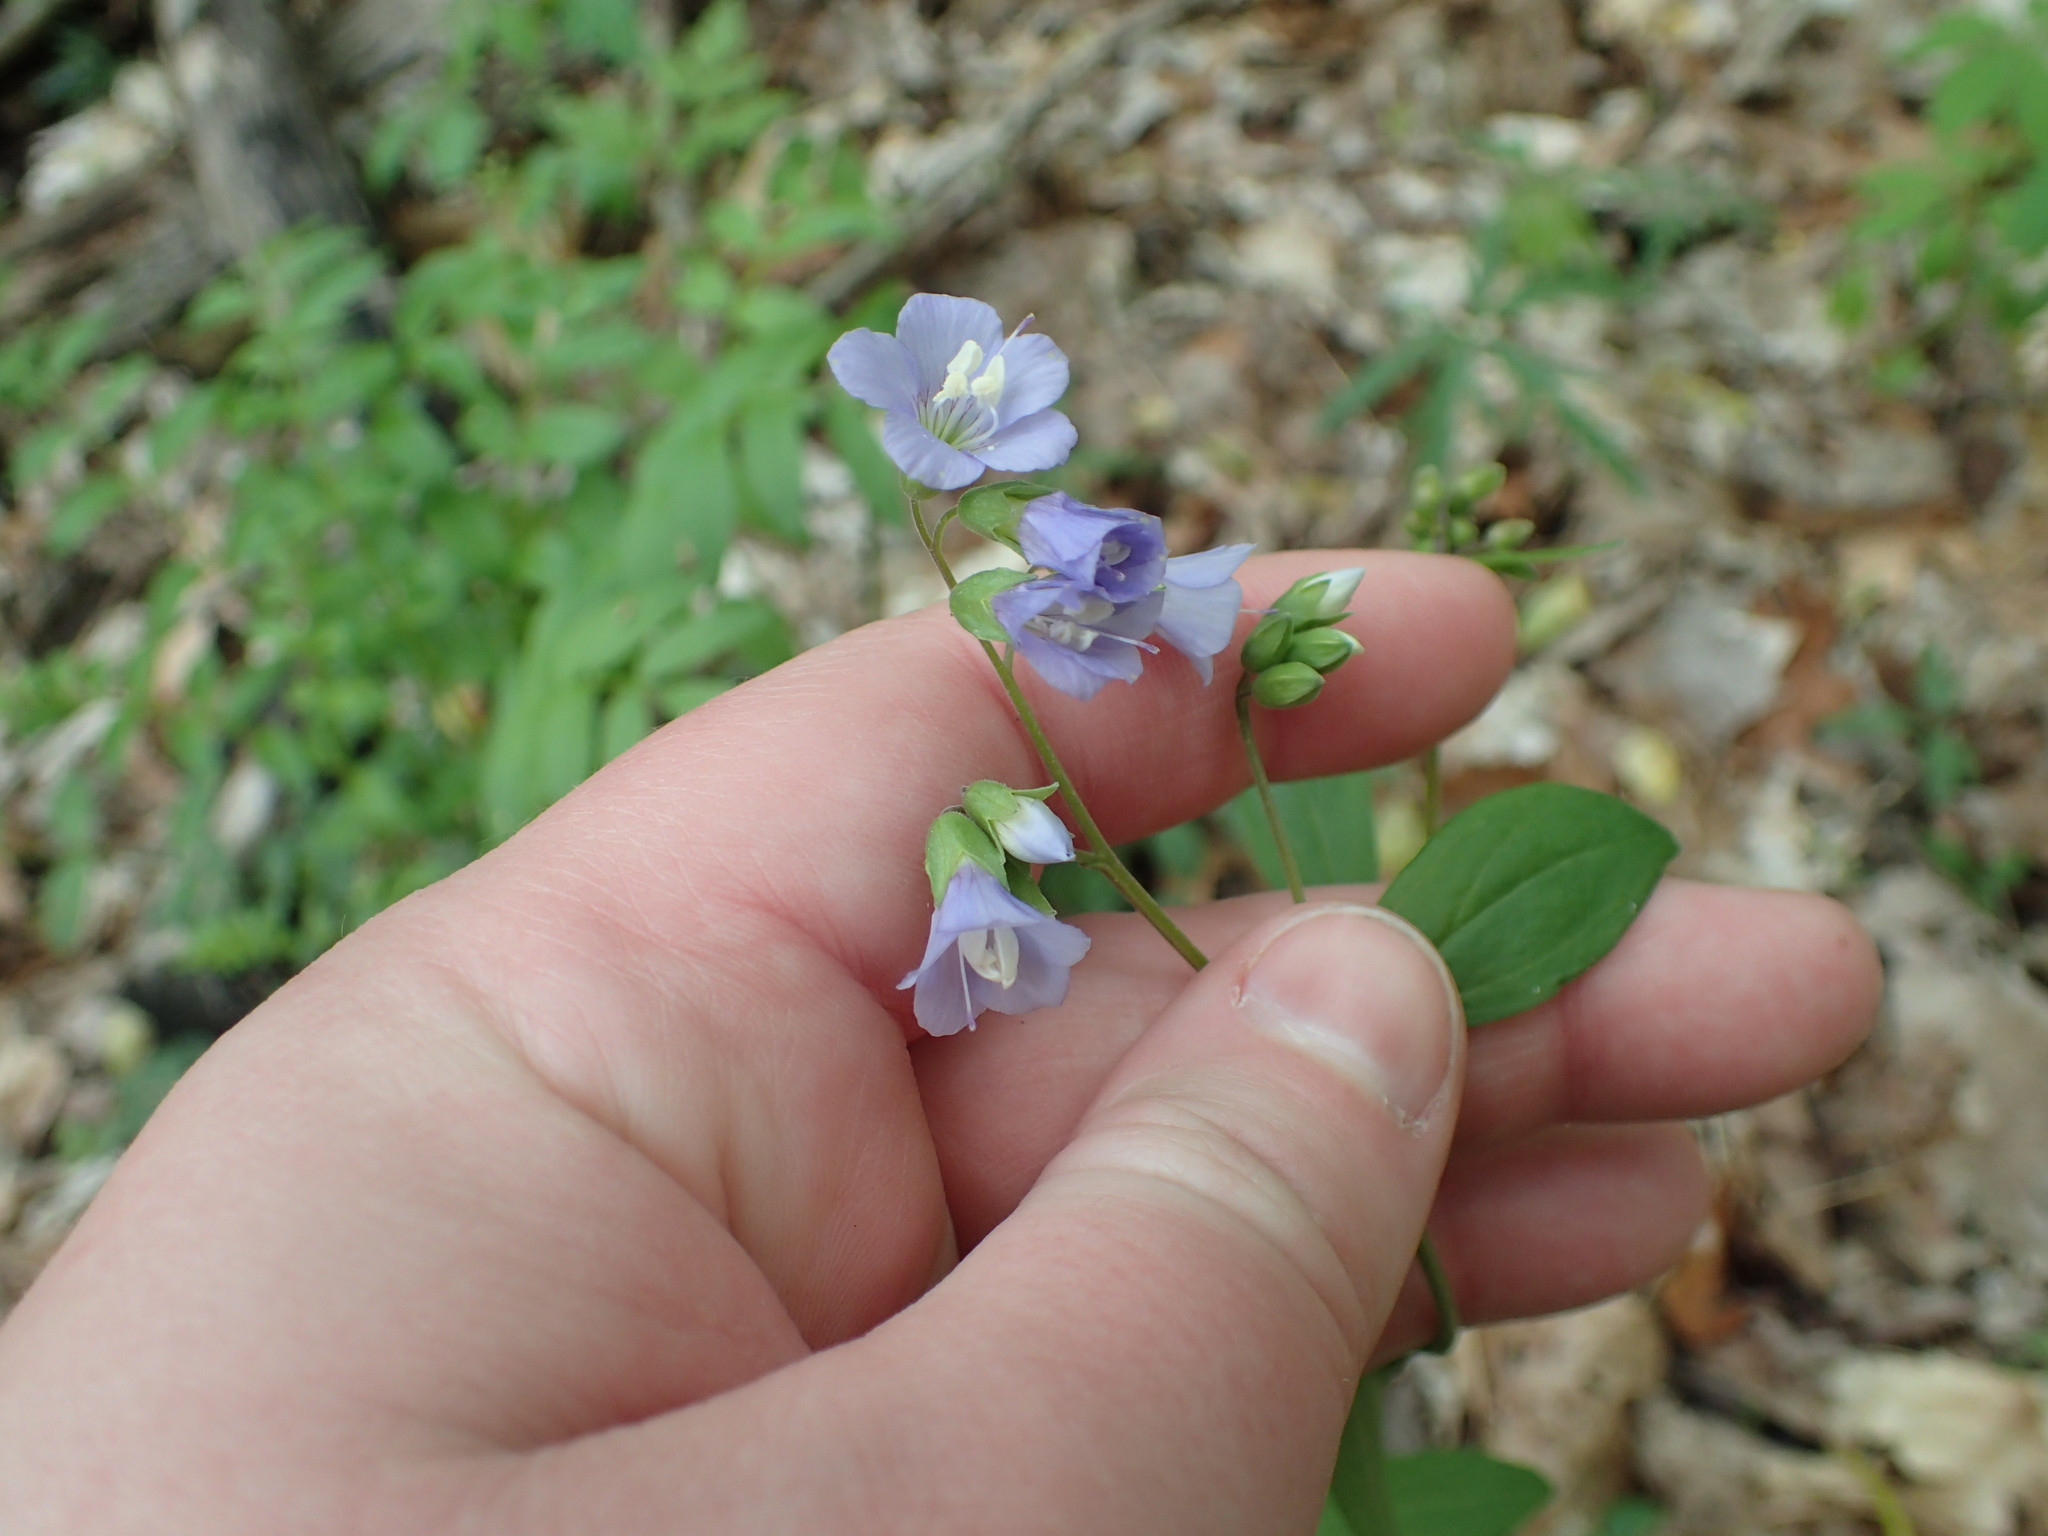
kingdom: Plantae
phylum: Tracheophyta
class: Magnoliopsida
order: Ericales
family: Polemoniaceae
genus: Polemonium
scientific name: Polemonium reptans
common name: Creeping jacob's-ladder
